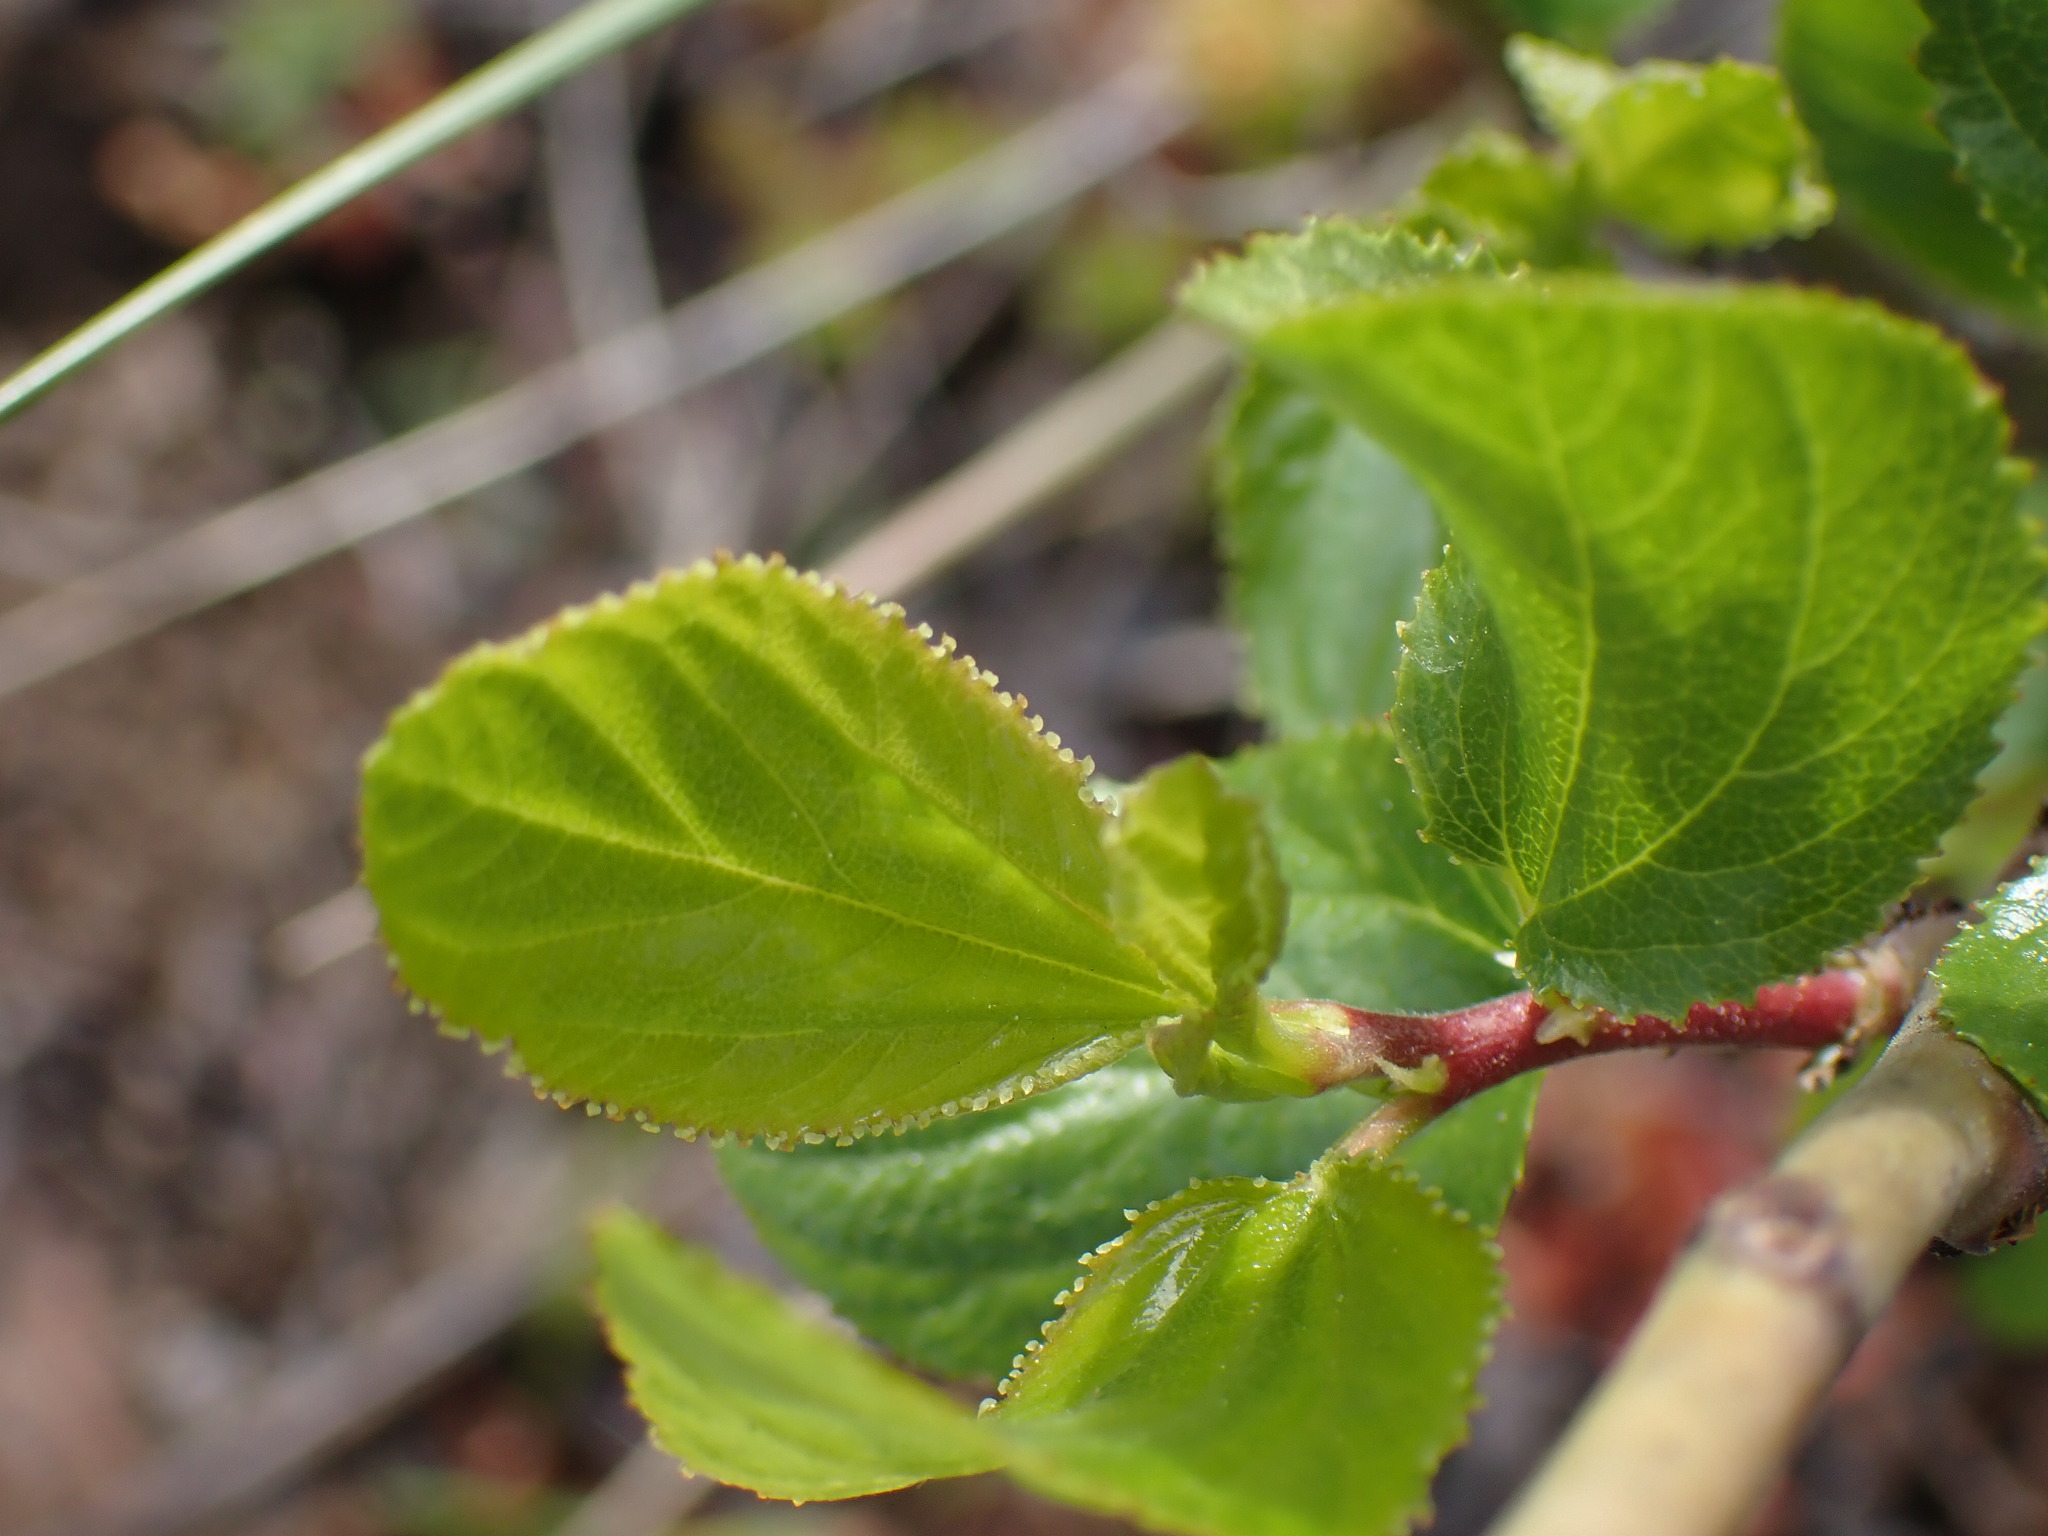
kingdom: Plantae
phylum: Tracheophyta
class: Magnoliopsida
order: Rosales
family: Rhamnaceae
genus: Ceanothus
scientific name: Ceanothus sanguineus
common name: Teatree
